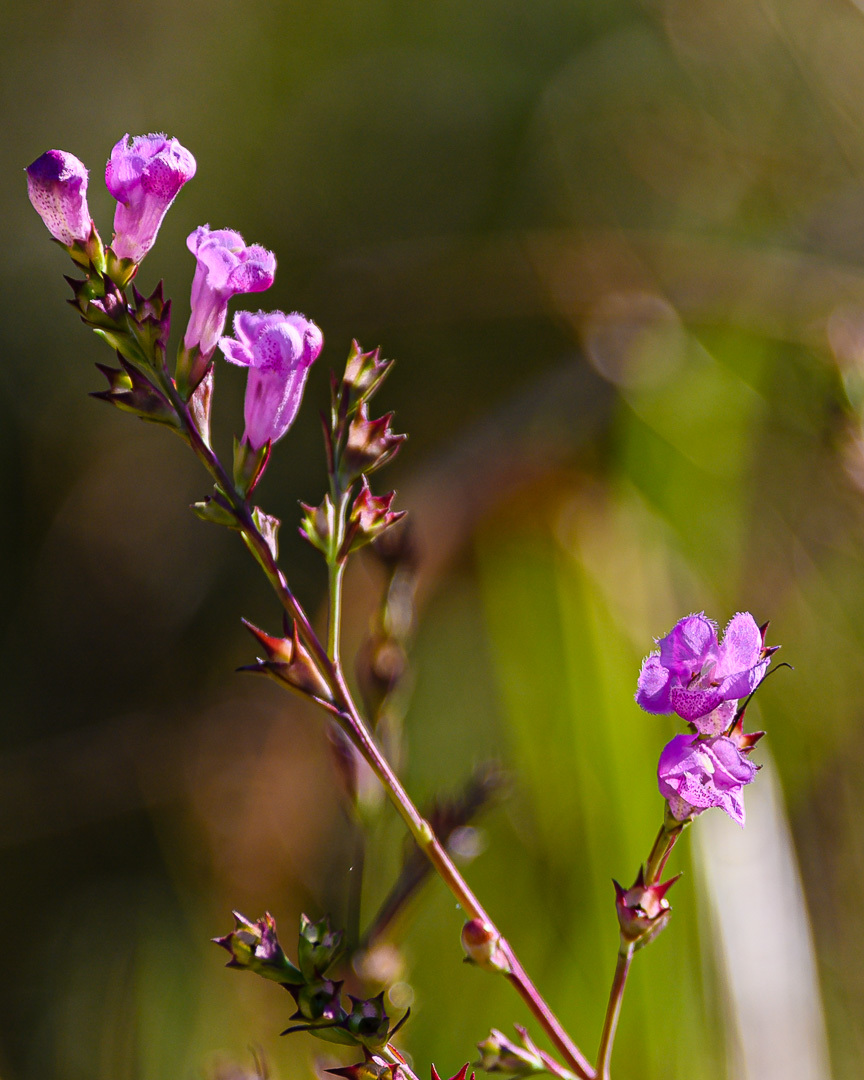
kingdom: Plantae
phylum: Tracheophyta
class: Magnoliopsida
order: Lamiales
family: Orobanchaceae
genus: Agalinis
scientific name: Agalinis heterophylla
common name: Prairie agalinis
